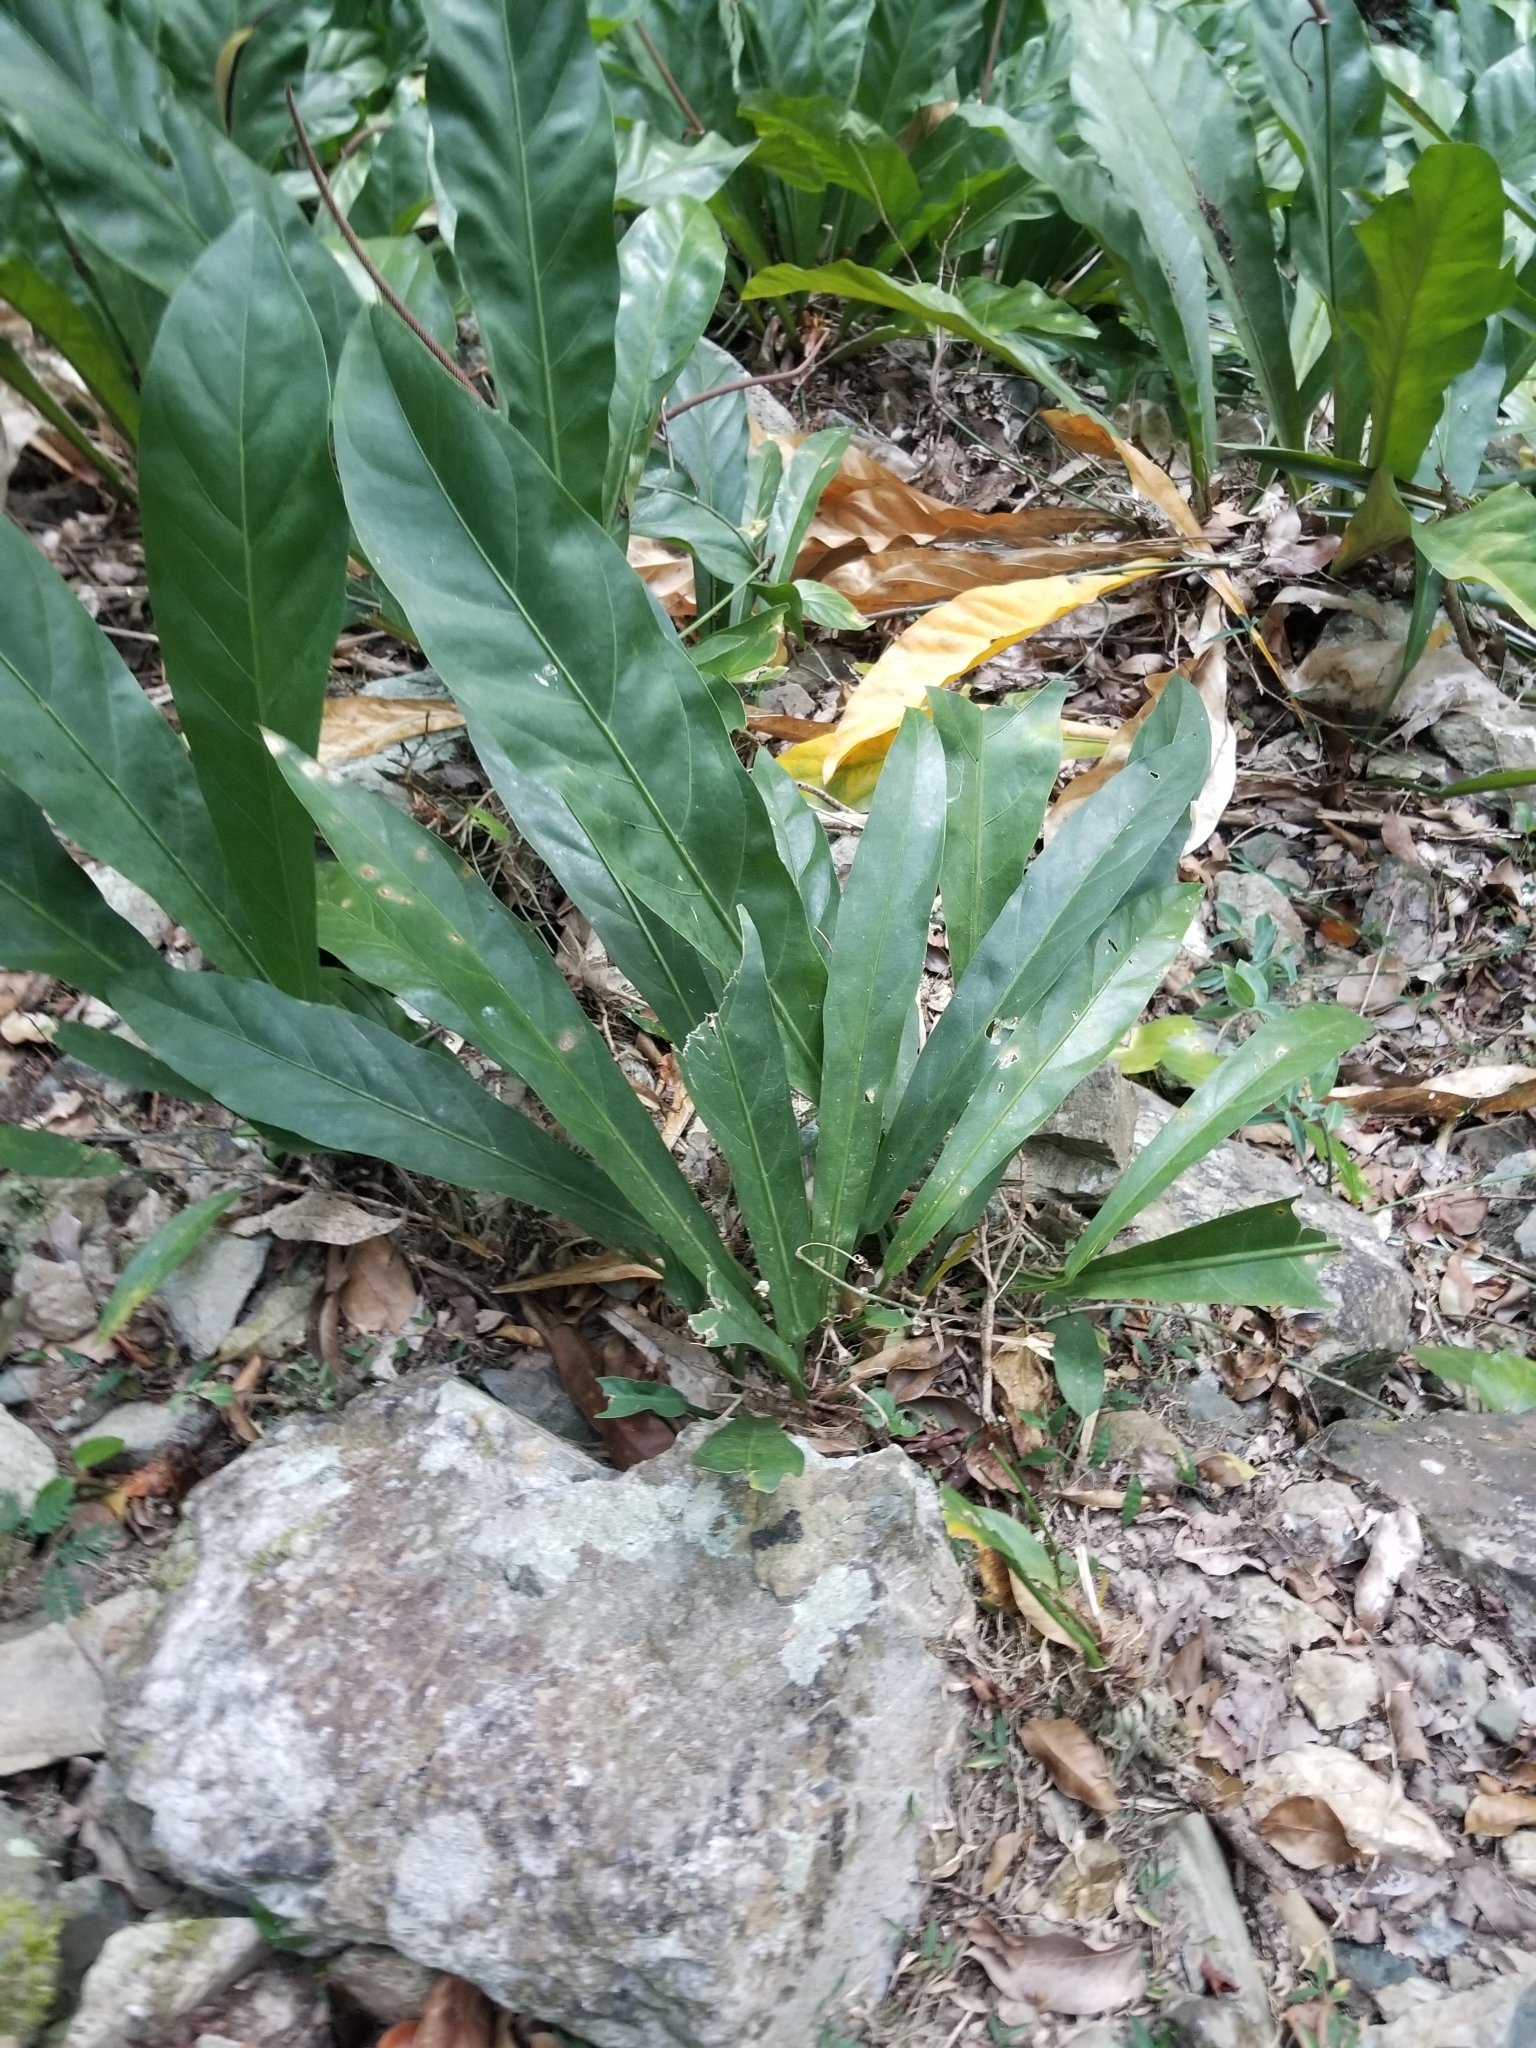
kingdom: Plantae
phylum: Tracheophyta
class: Liliopsida
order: Alismatales
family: Araceae
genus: Anthurium
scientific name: Anthurium crenatum
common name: Scalloped laceleaf
